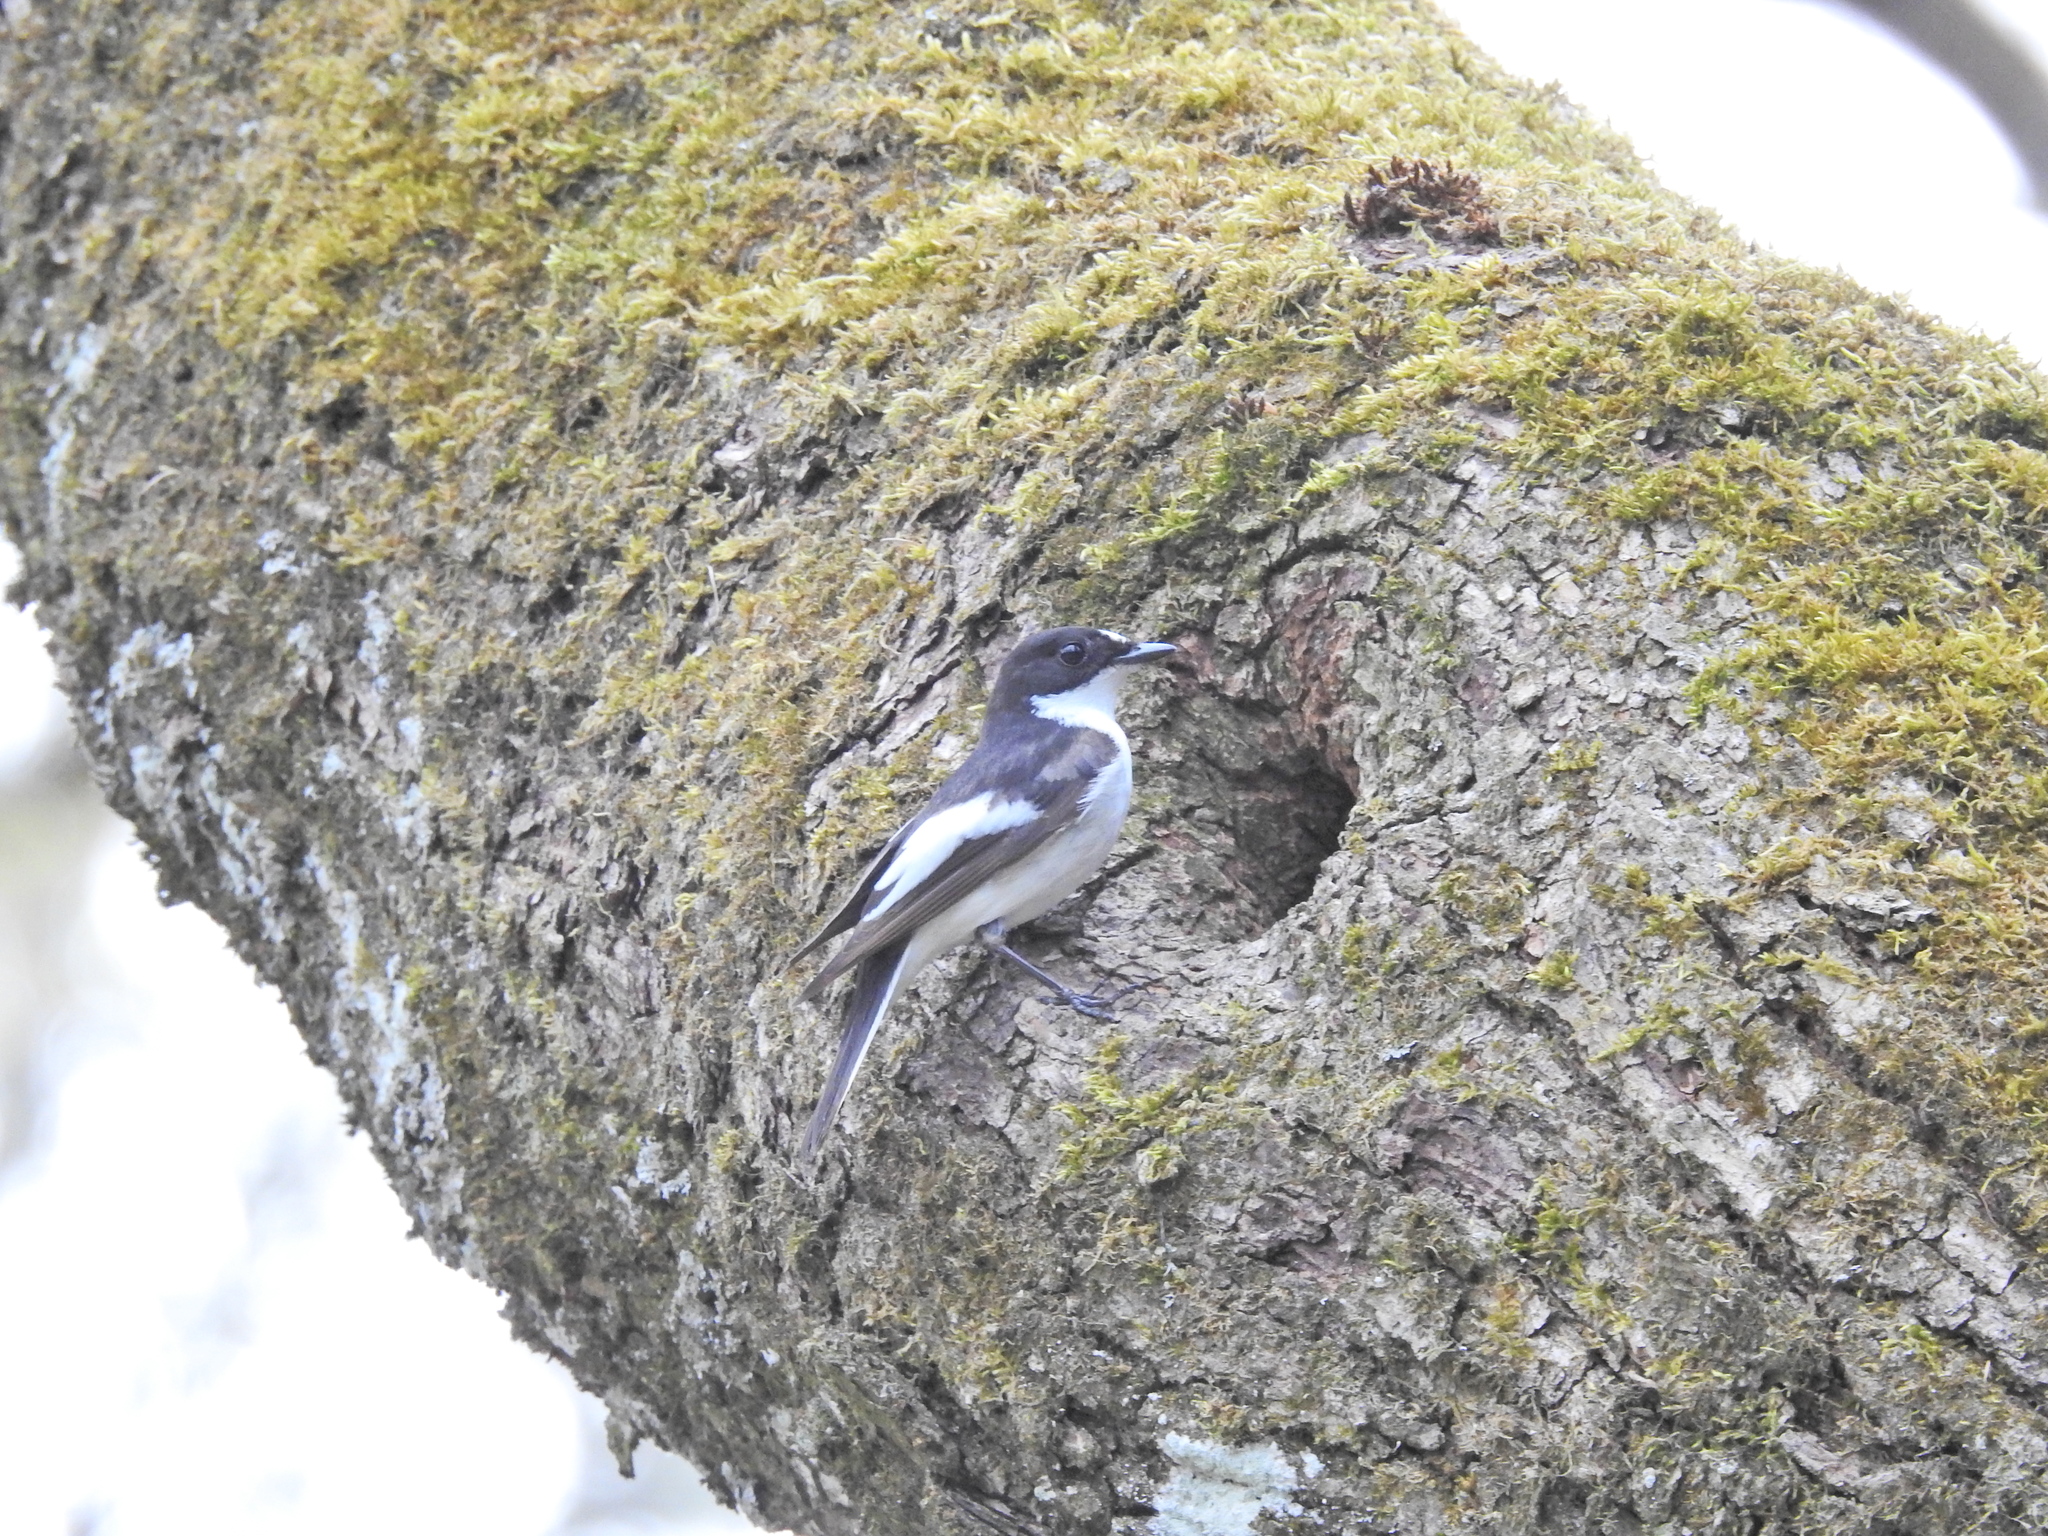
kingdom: Animalia
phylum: Chordata
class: Aves
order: Passeriformes
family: Muscicapidae
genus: Ficedula
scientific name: Ficedula hypoleuca
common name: European pied flycatcher
